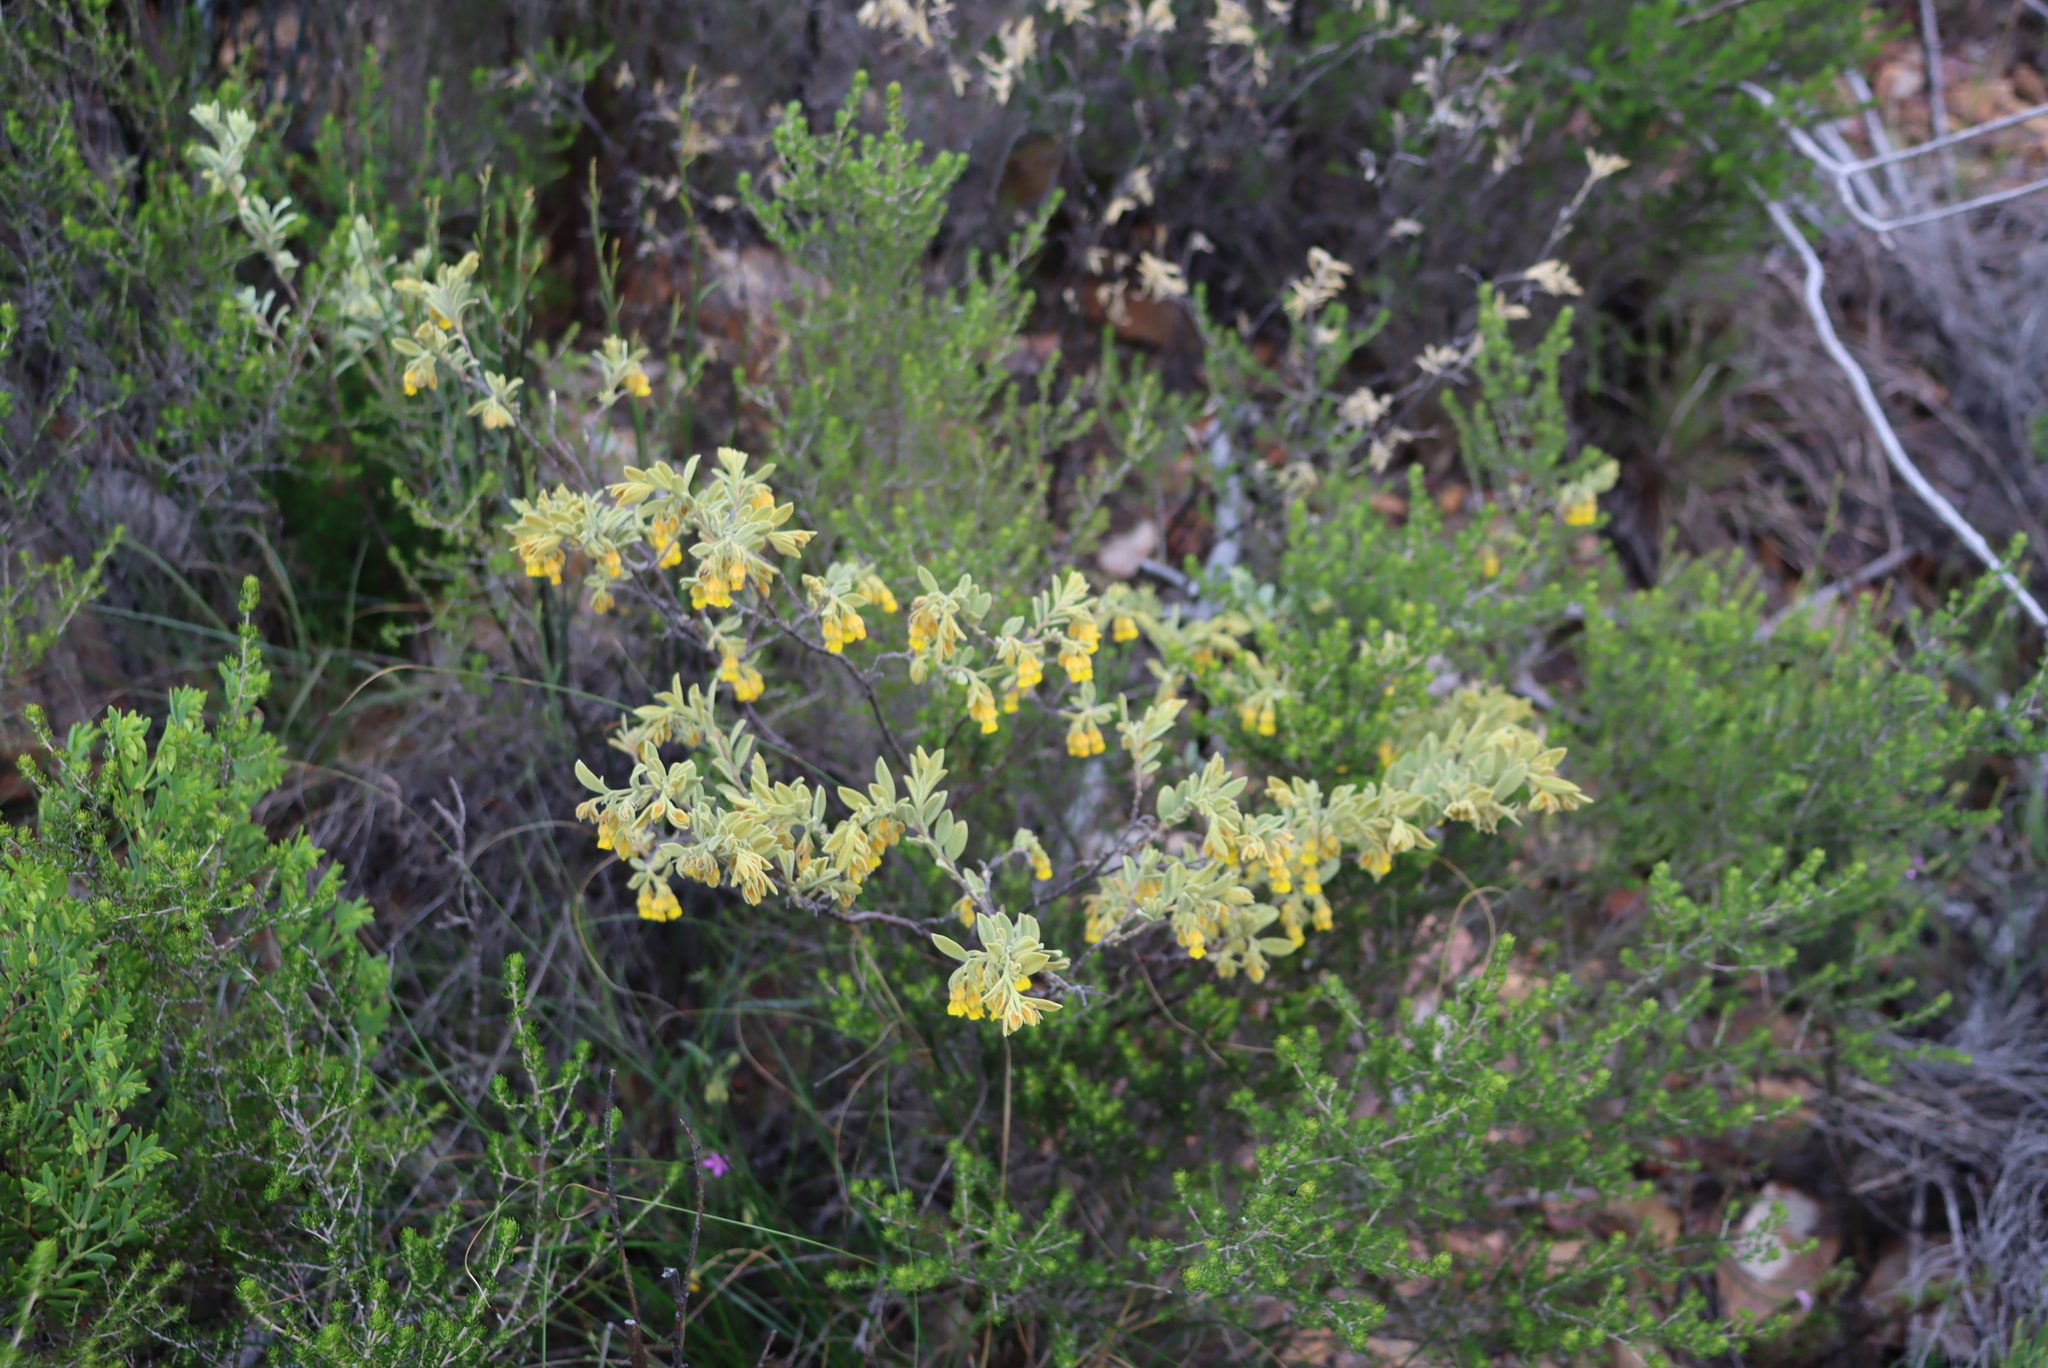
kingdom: Plantae
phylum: Tracheophyta
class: Magnoliopsida
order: Malvales
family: Malvaceae
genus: Hermannia
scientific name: Hermannia velutina
